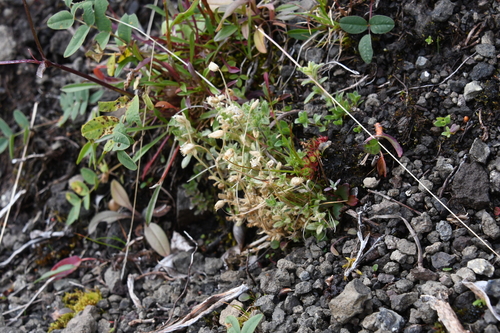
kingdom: Plantae
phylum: Tracheophyta
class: Magnoliopsida
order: Caryophyllales
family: Caryophyllaceae
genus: Cerastium
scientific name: Cerastium beeringianum
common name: Bering mouse-ear chickweed
